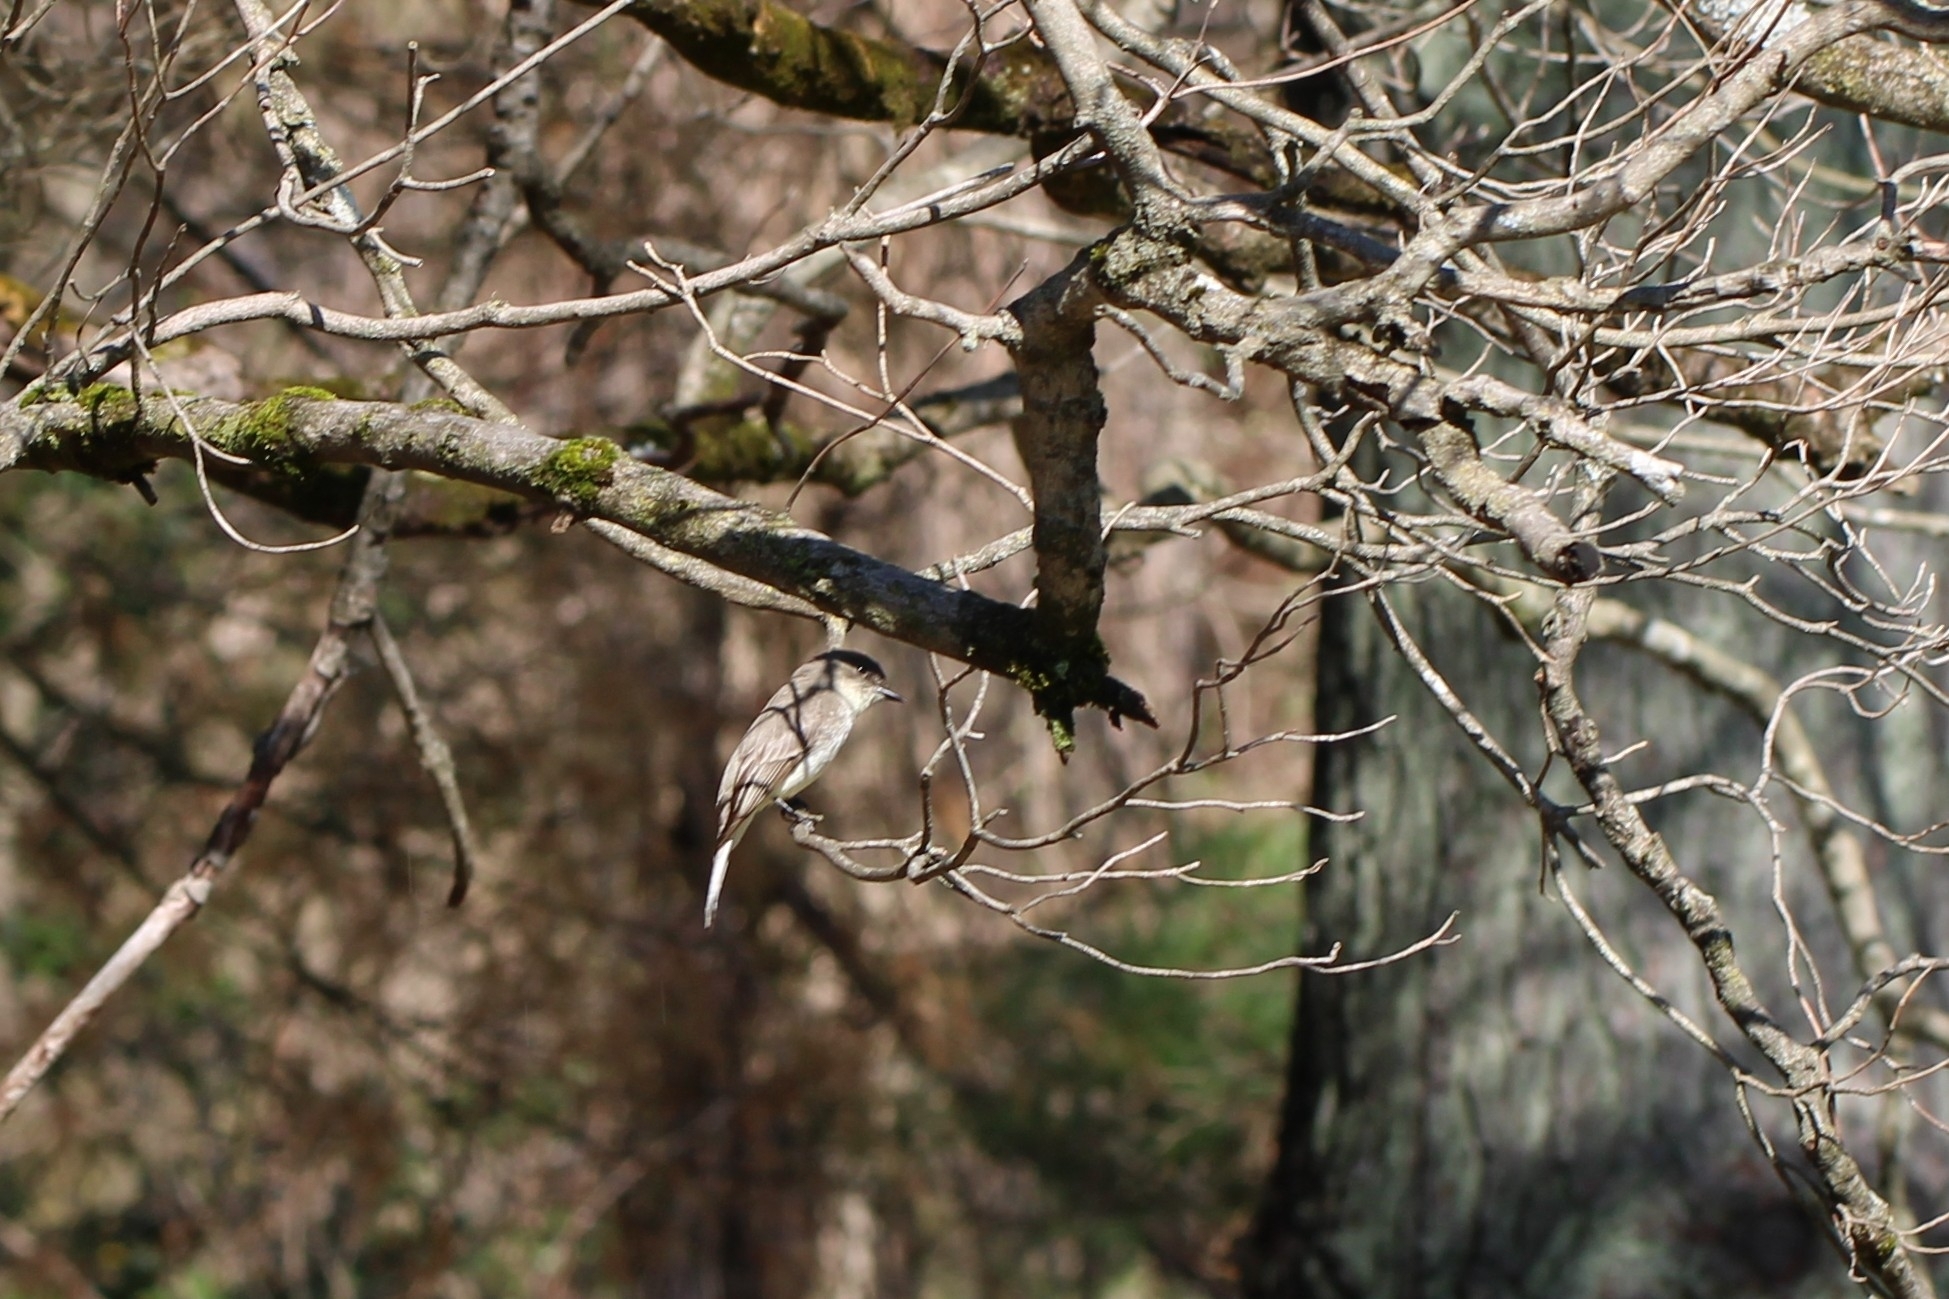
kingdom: Animalia
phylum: Chordata
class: Aves
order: Passeriformes
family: Tyrannidae
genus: Sayornis
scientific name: Sayornis phoebe
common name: Eastern phoebe
